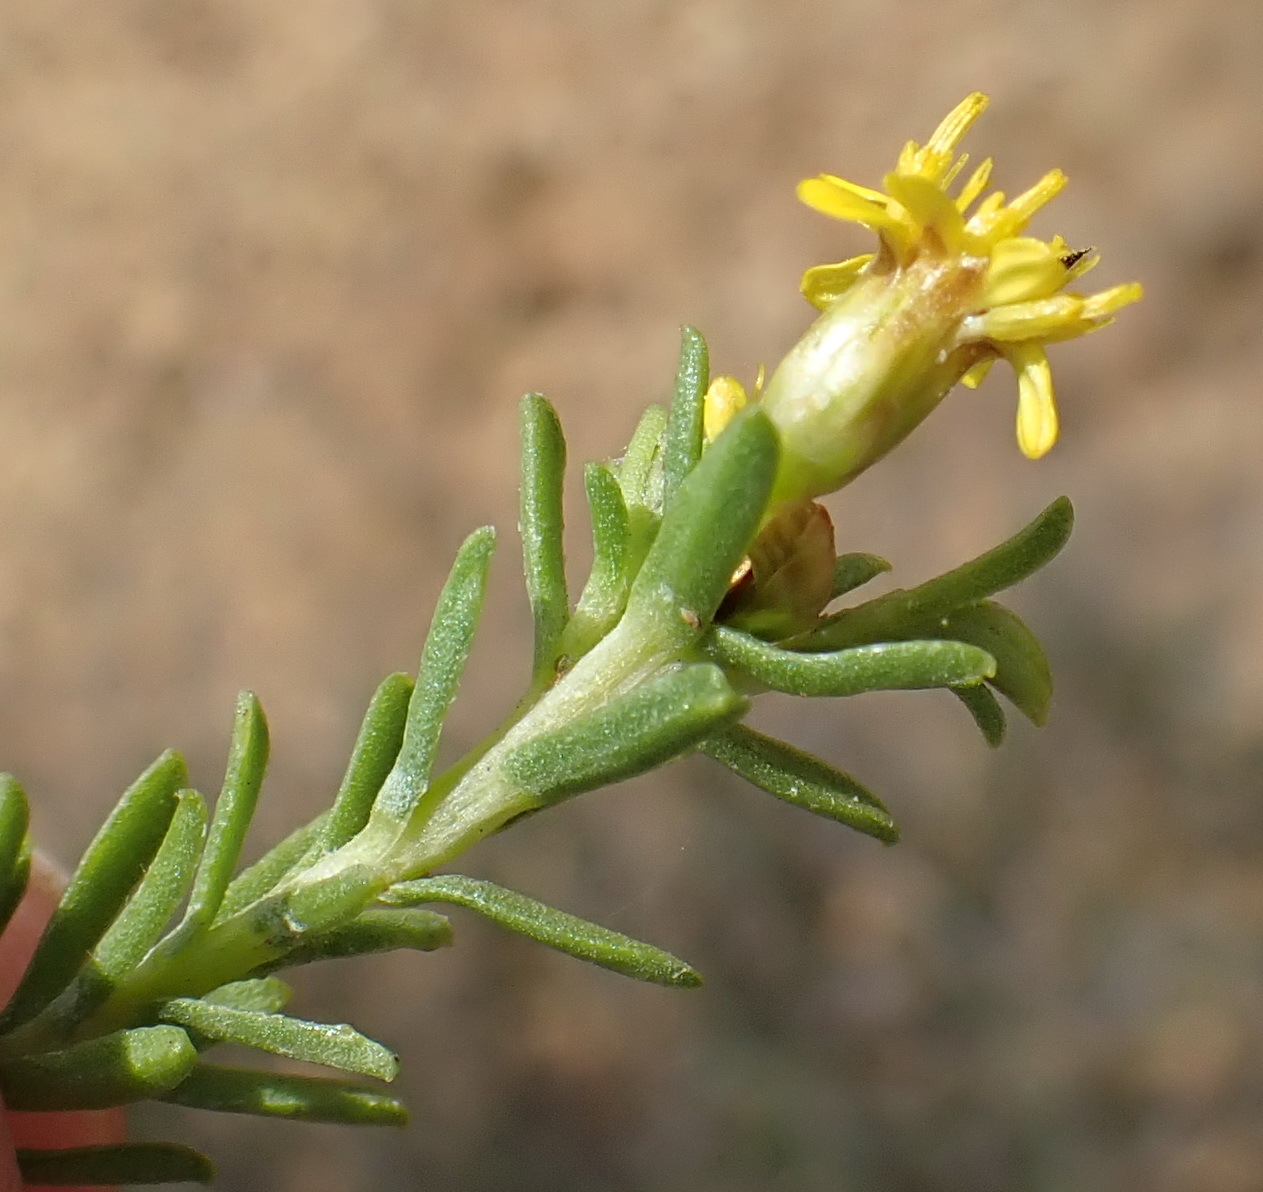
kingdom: Plantae
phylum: Tracheophyta
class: Magnoliopsida
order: Asterales
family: Asteraceae
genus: Oedera
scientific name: Oedera genistifolia
